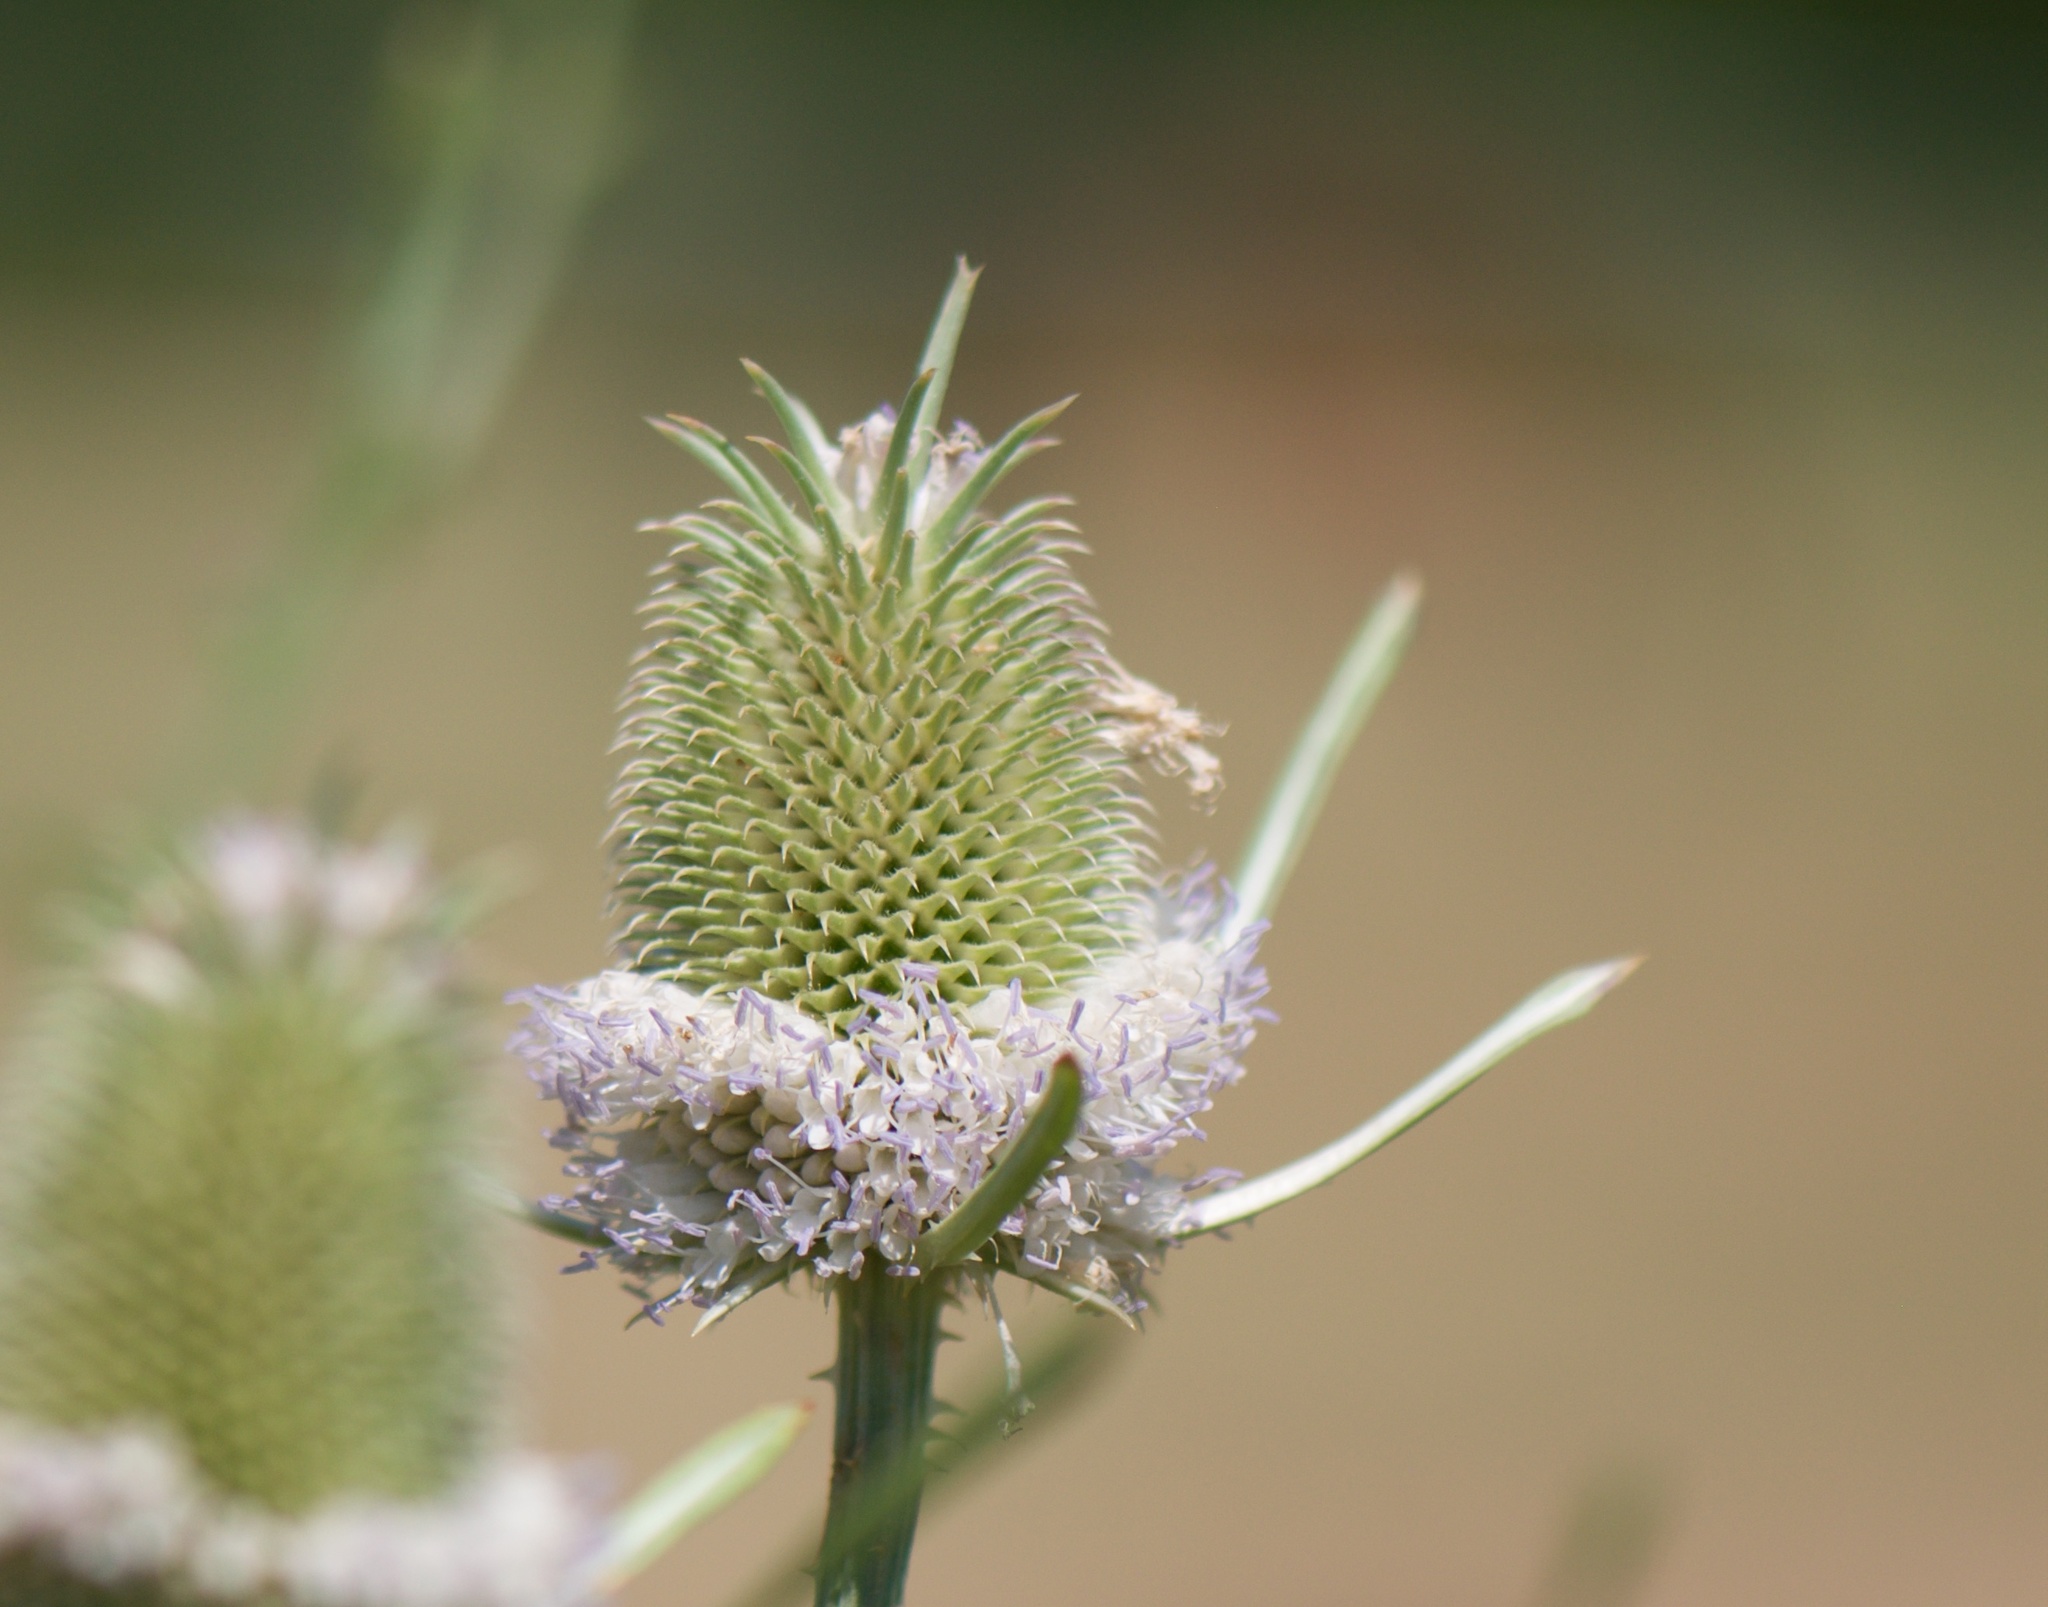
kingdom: Plantae
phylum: Tracheophyta
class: Magnoliopsida
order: Dipsacales
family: Caprifoliaceae
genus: Dipsacus
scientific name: Dipsacus sativus
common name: Fuller's teasel
